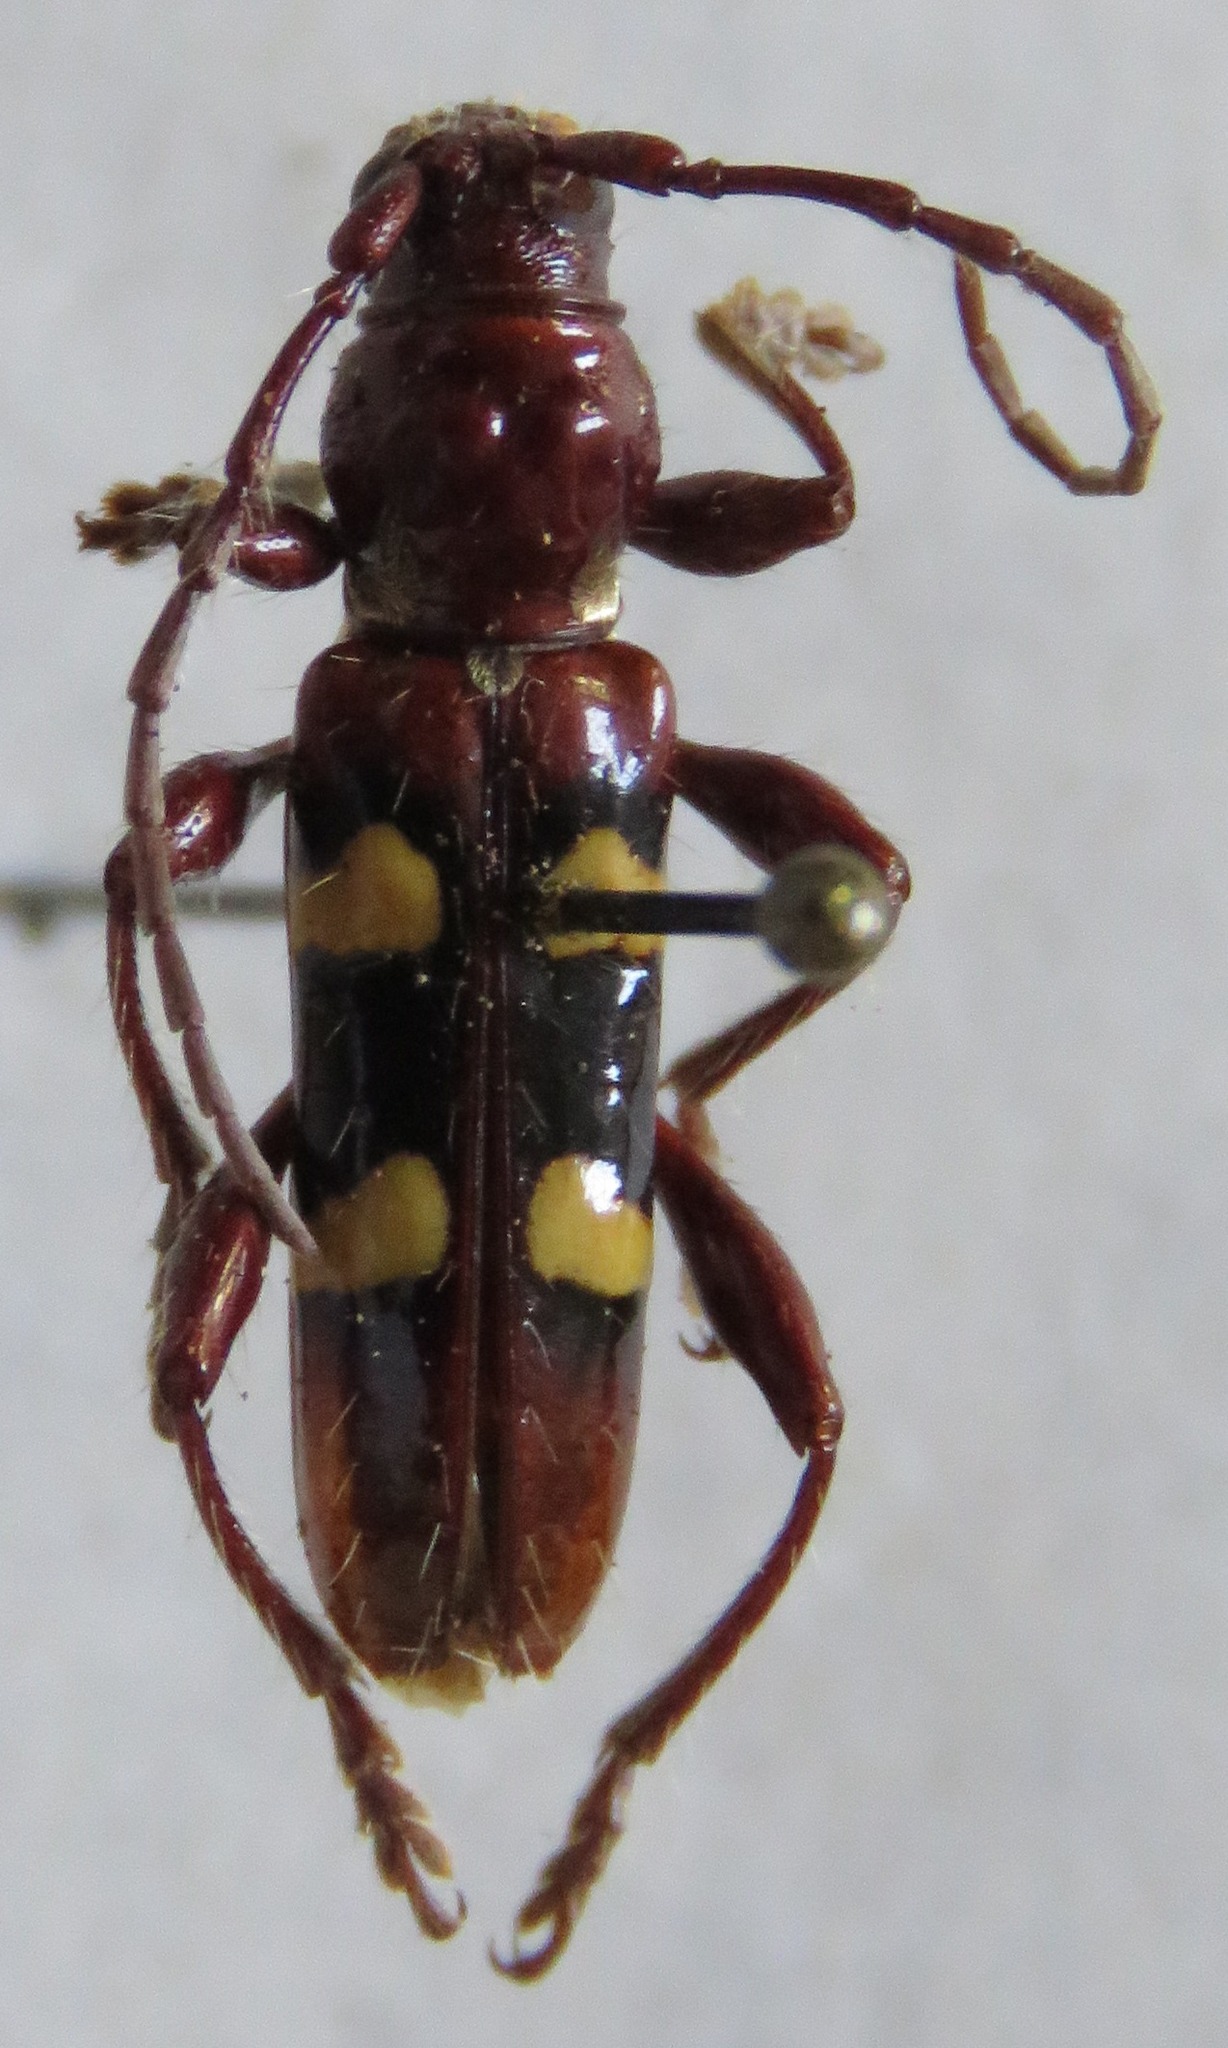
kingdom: Animalia
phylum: Arthropoda
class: Insecta
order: Coleoptera
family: Cerambycidae
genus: Stenygra
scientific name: Stenygra histrio
